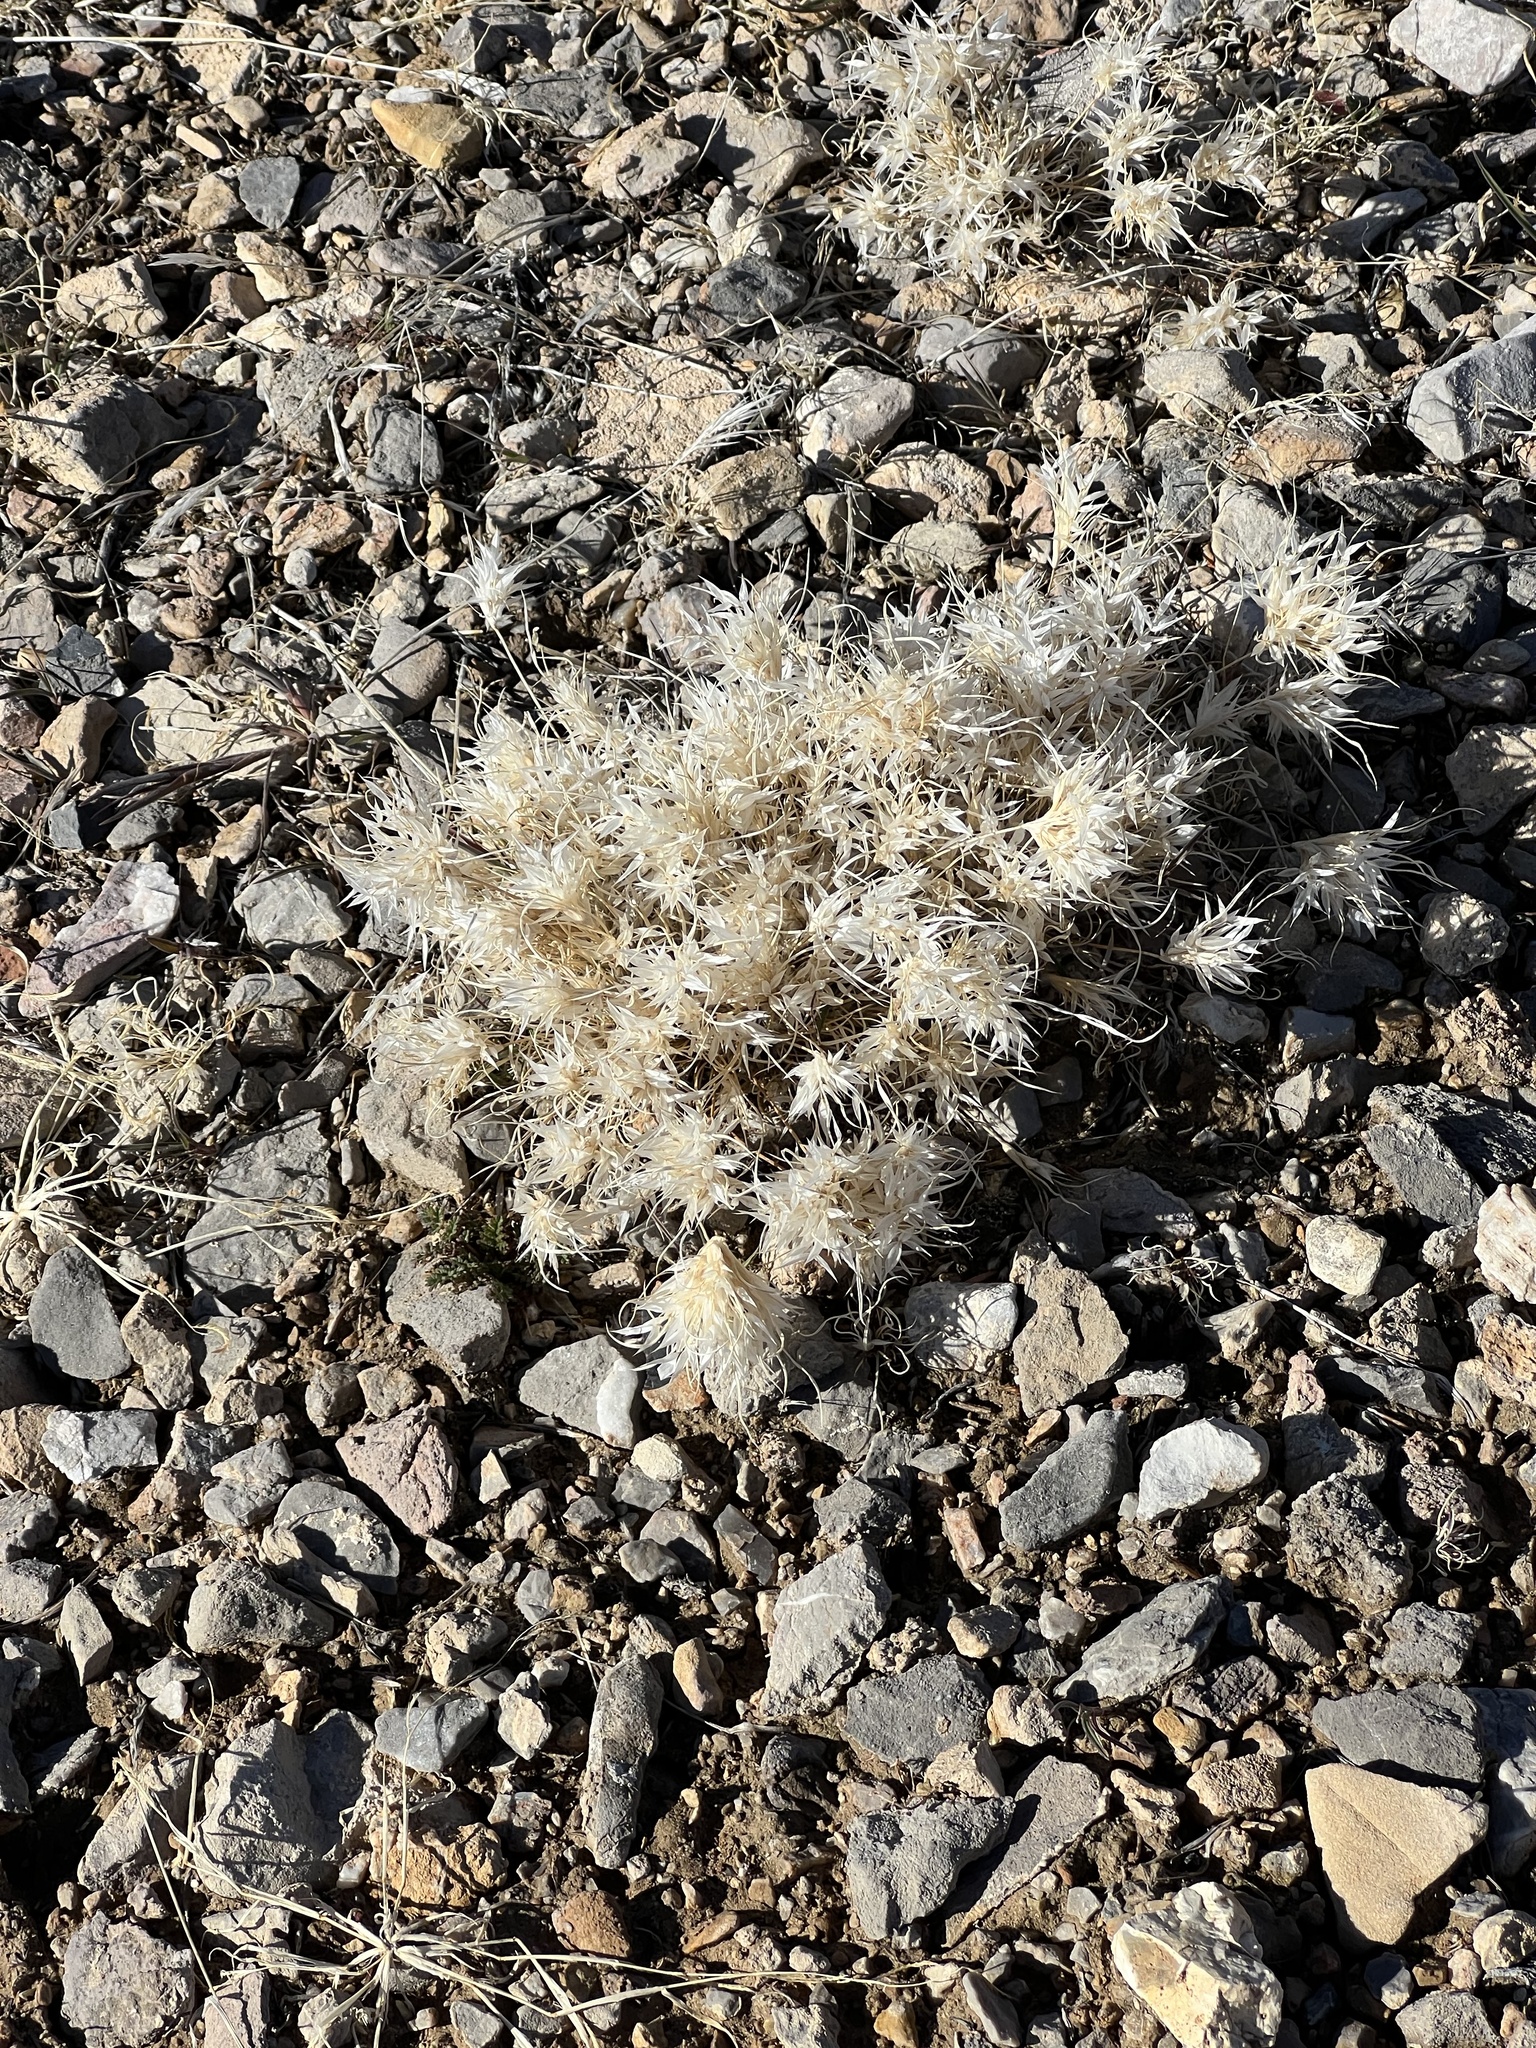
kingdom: Plantae
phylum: Tracheophyta
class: Liliopsida
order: Poales
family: Poaceae
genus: Dasyochloa
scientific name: Dasyochloa pulchella
